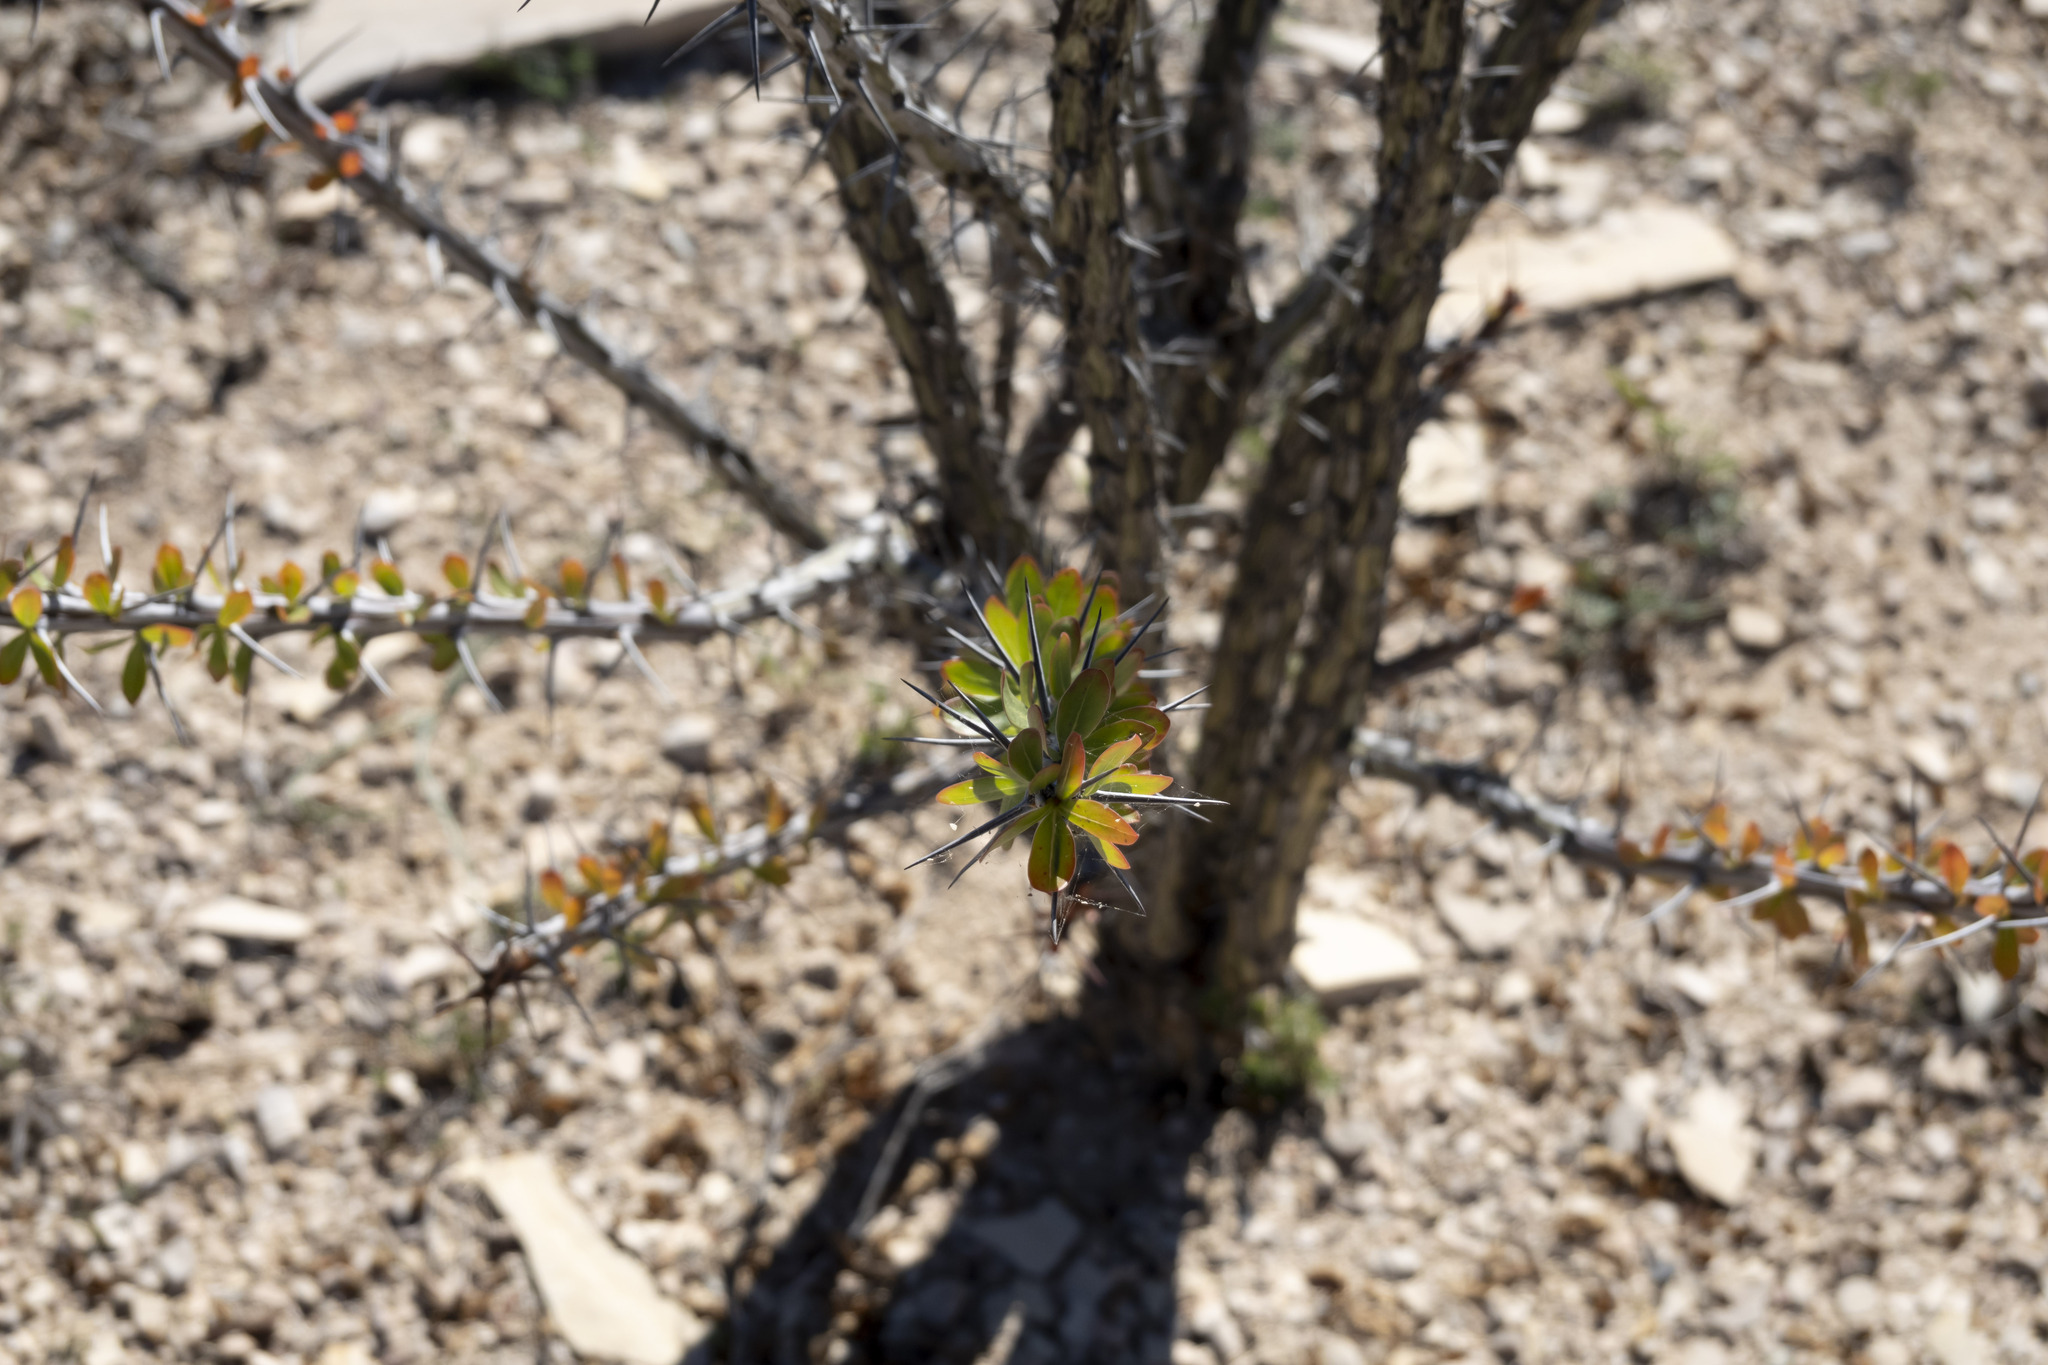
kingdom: Plantae
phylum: Tracheophyta
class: Magnoliopsida
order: Ericales
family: Fouquieriaceae
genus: Fouquieria
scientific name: Fouquieria splendens
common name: Vine-cactus
